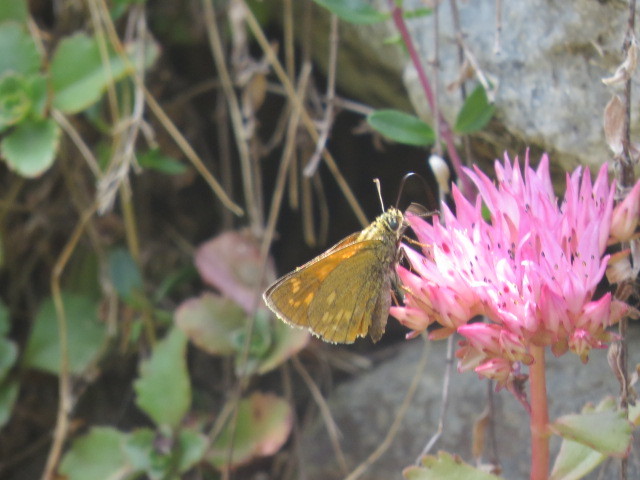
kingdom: Animalia
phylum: Arthropoda
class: Insecta
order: Lepidoptera
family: Hesperiidae
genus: Ochlodes
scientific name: Ochlodes venata
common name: Large skipper
